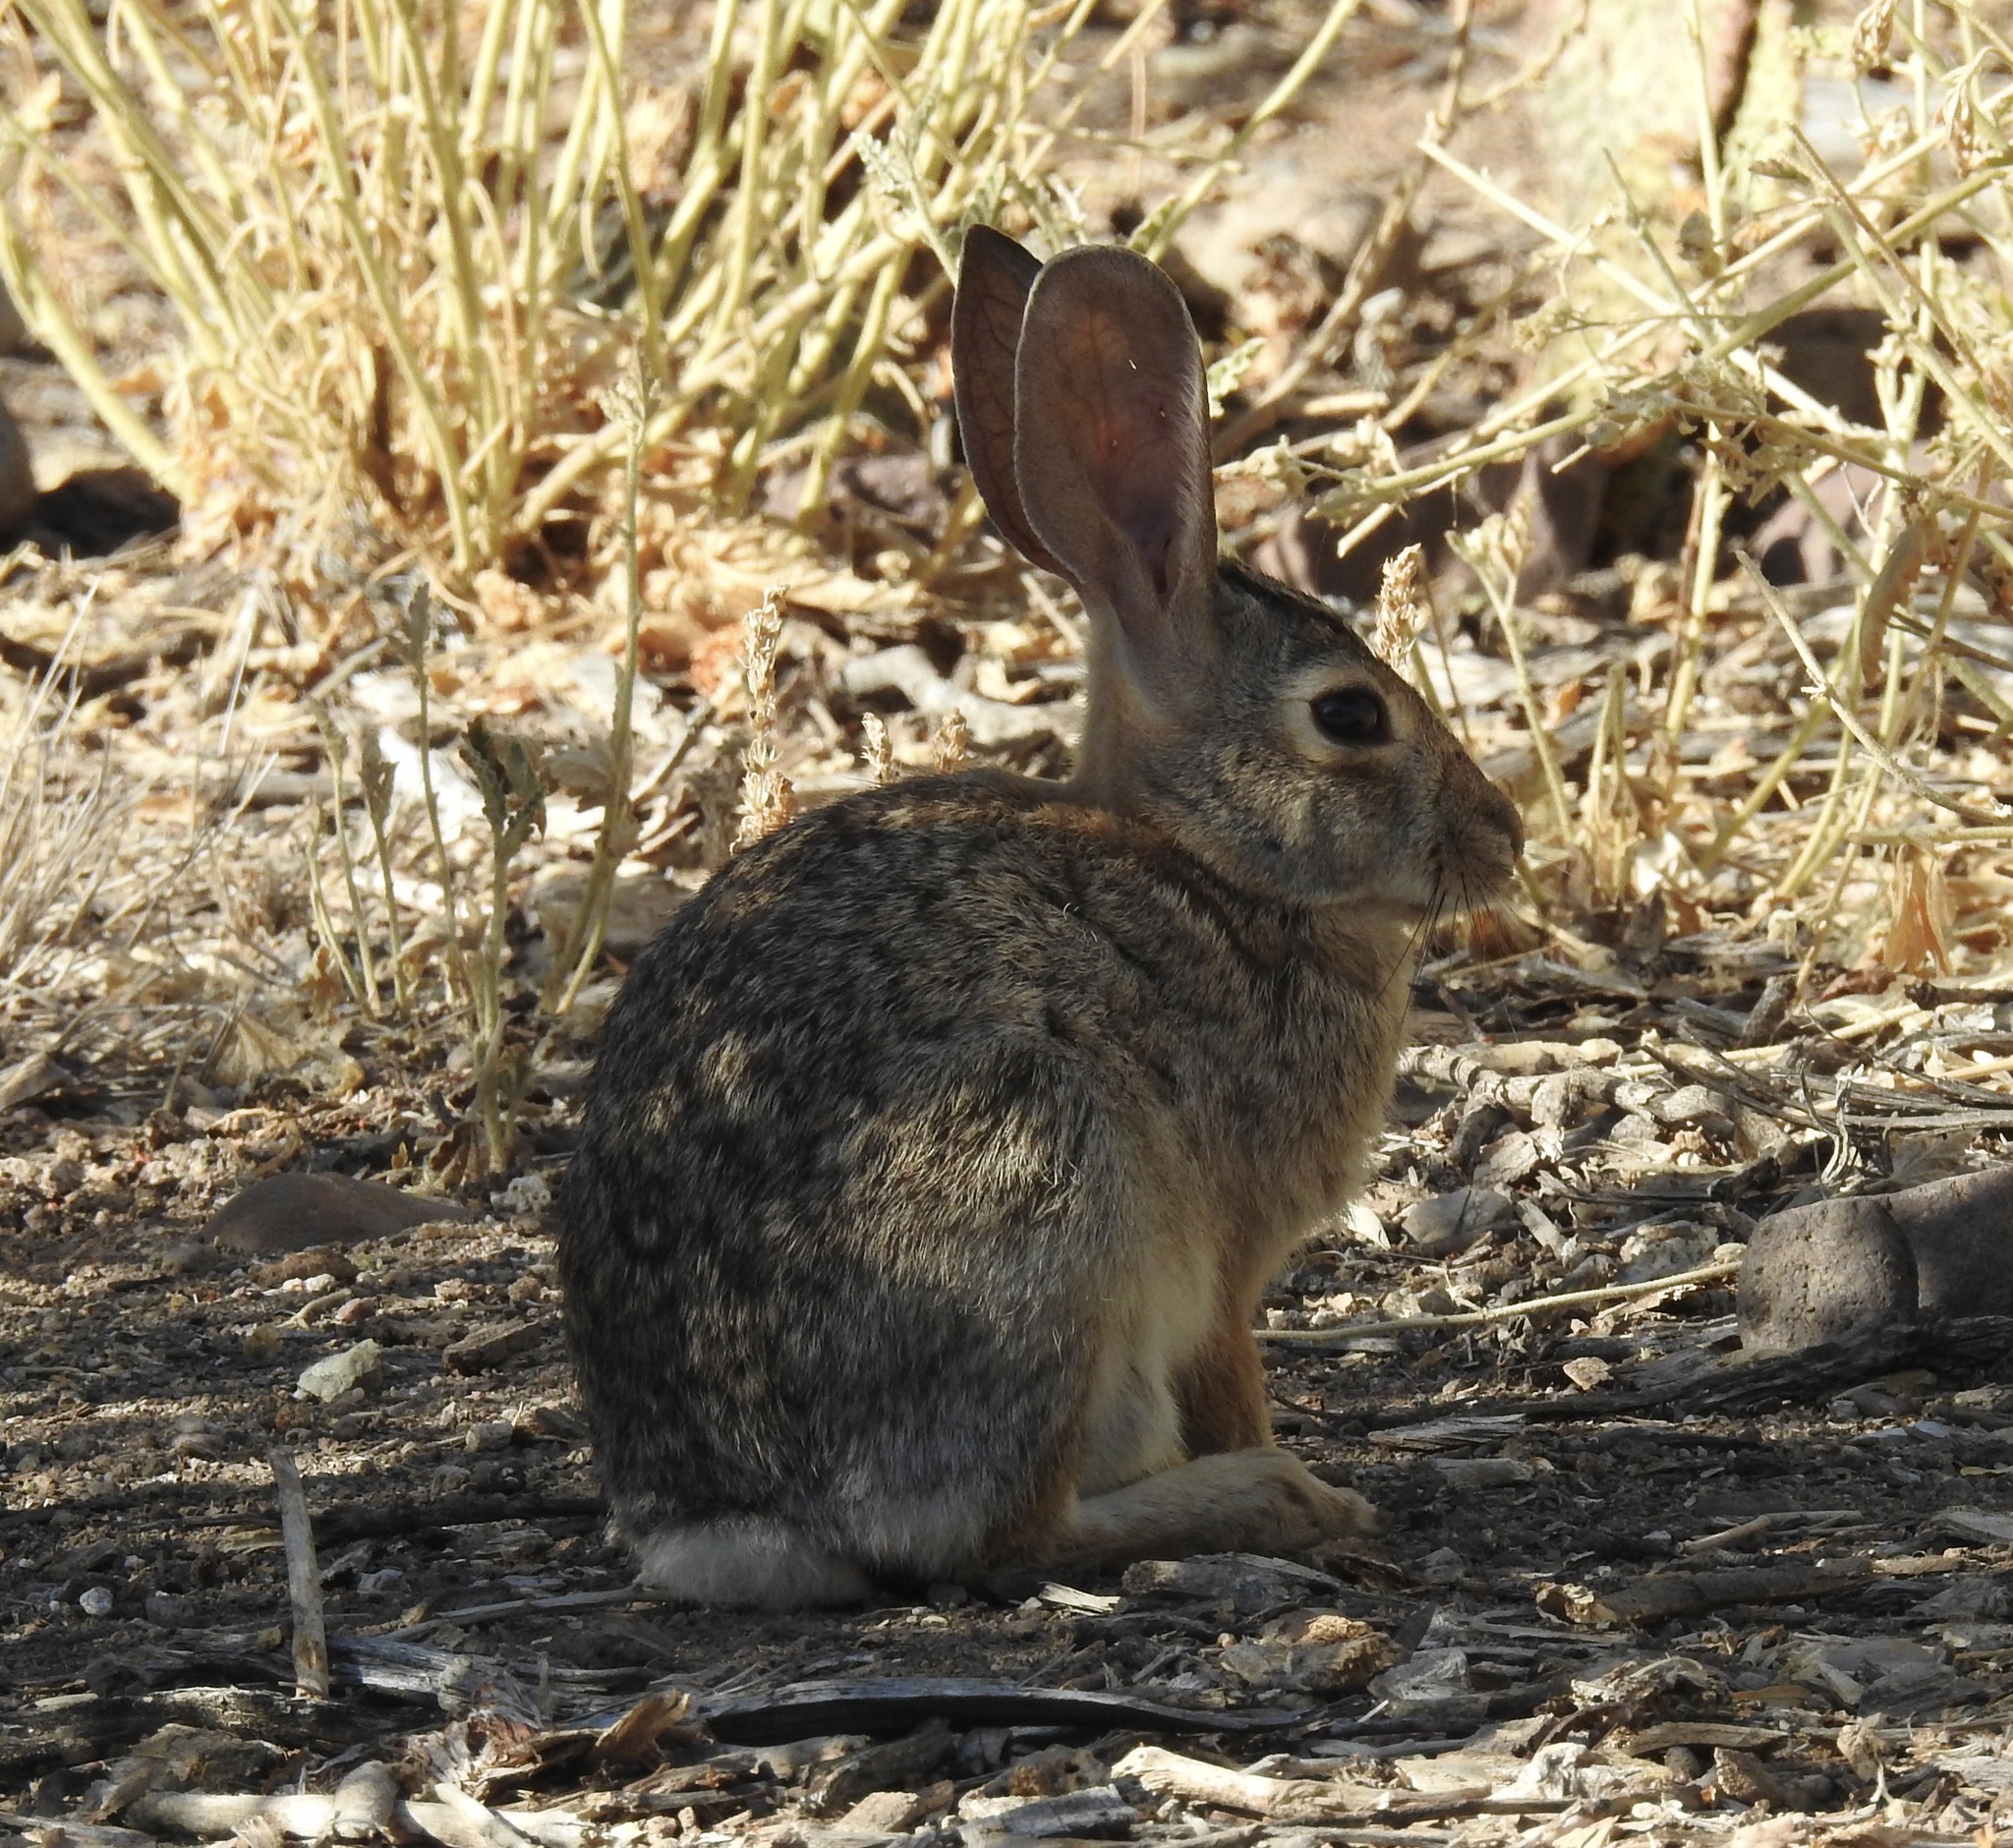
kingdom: Animalia
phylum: Chordata
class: Mammalia
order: Lagomorpha
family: Leporidae
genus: Sylvilagus
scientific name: Sylvilagus audubonii
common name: Desert cottontail
